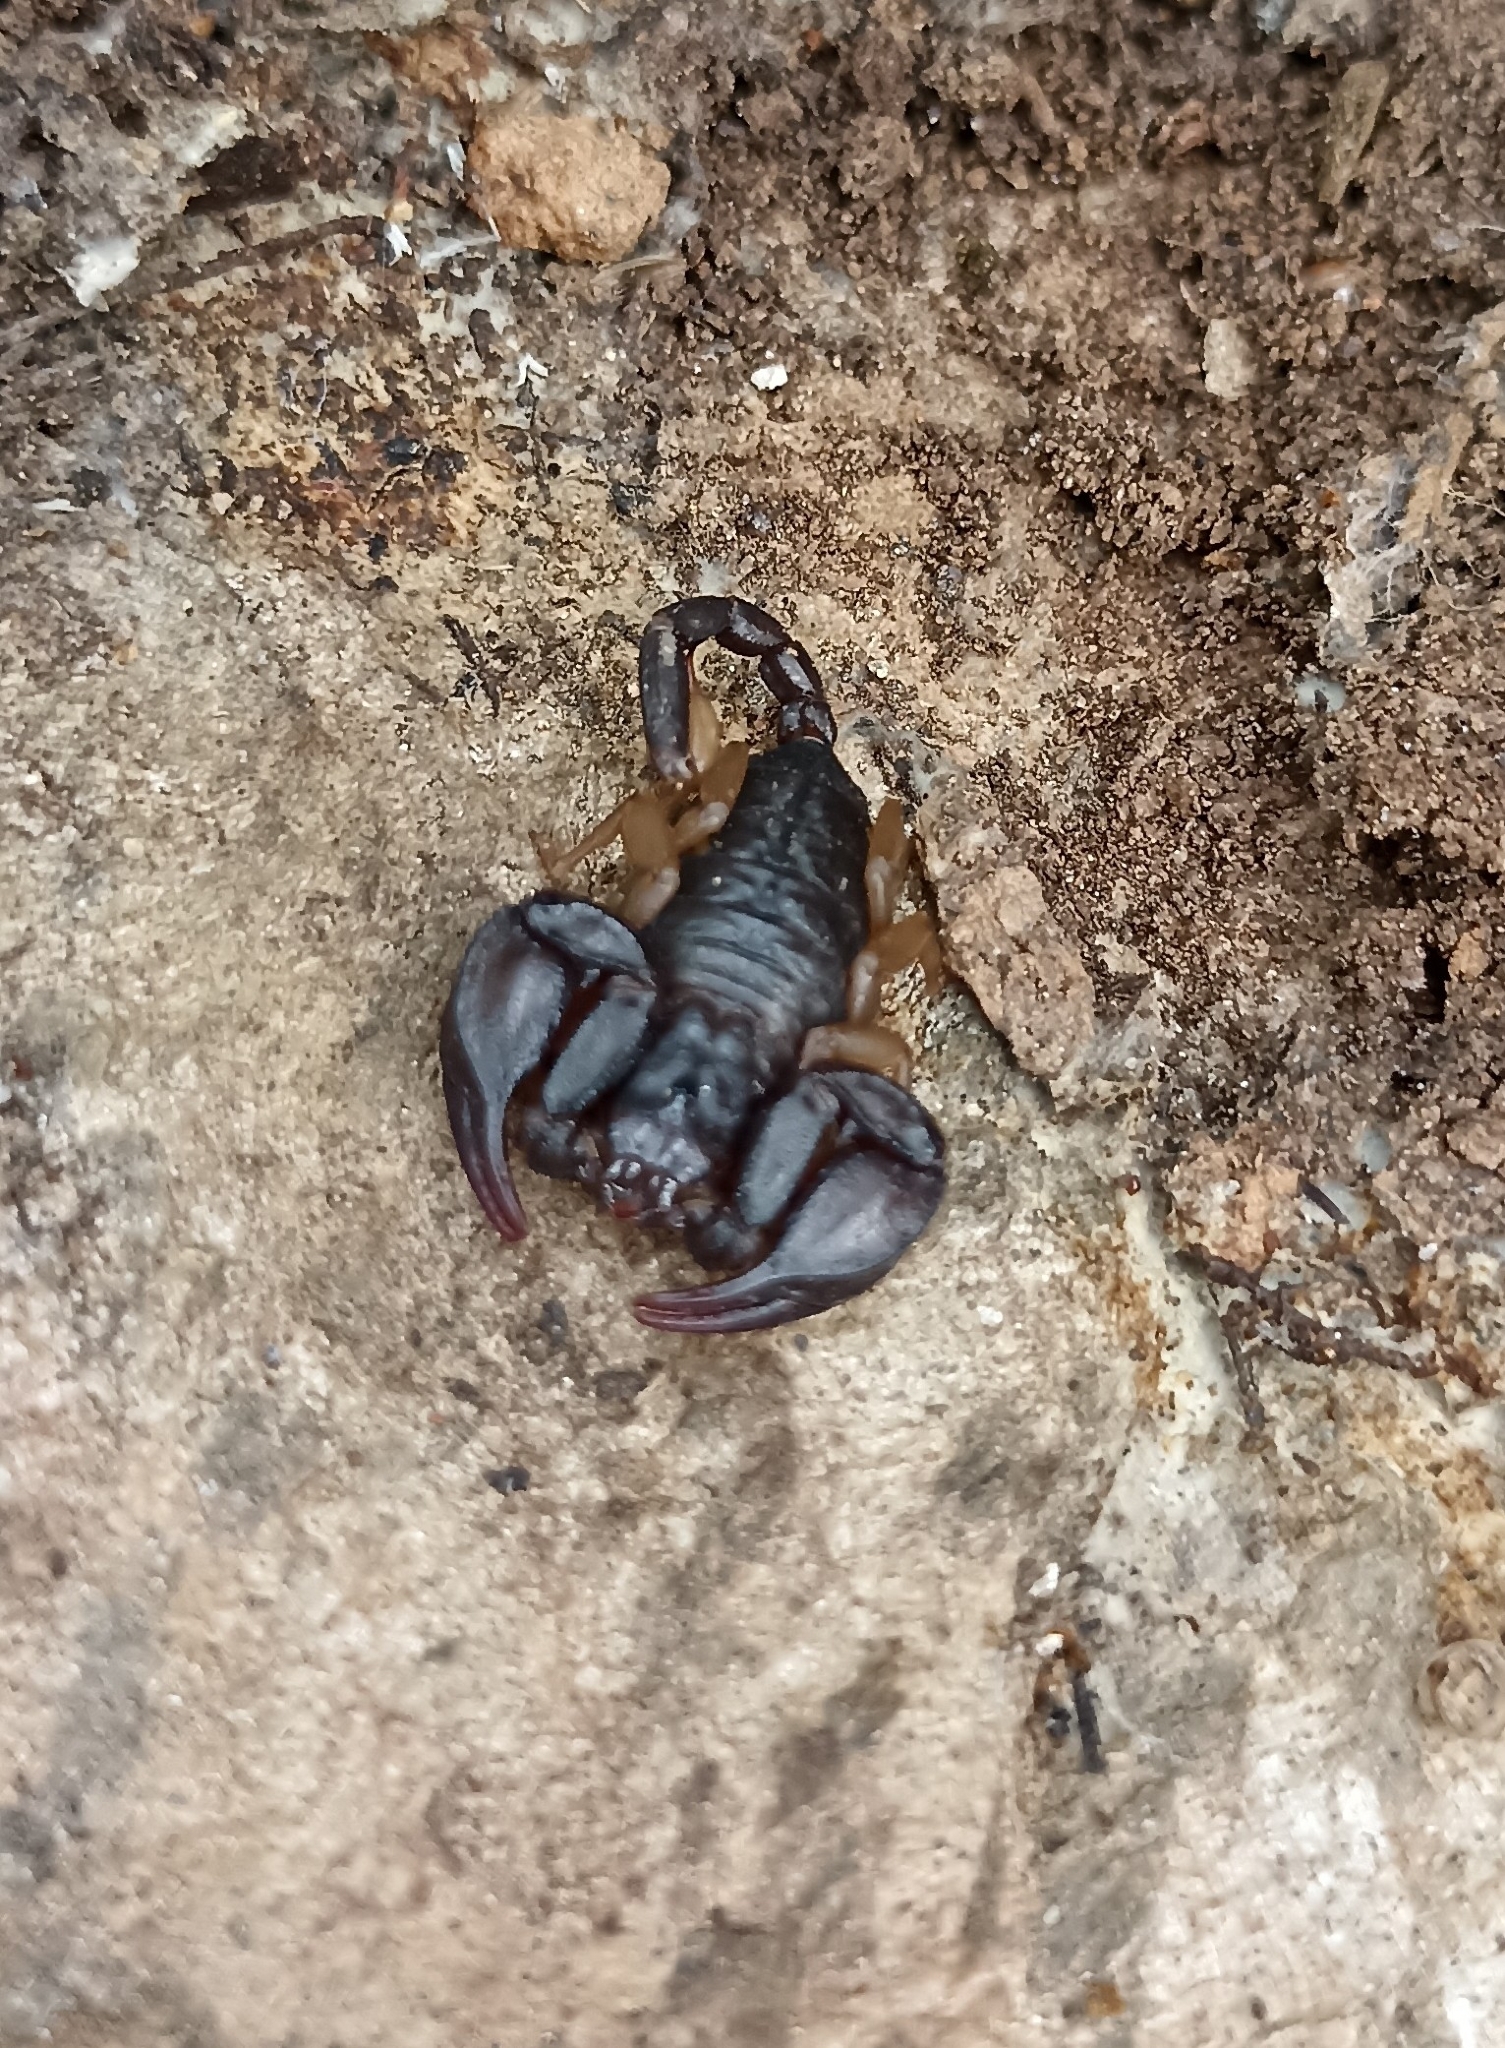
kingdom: Animalia
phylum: Arthropoda
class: Arachnida
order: Scorpiones
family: Euscorpiidae
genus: Euscorpius
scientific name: Euscorpius
